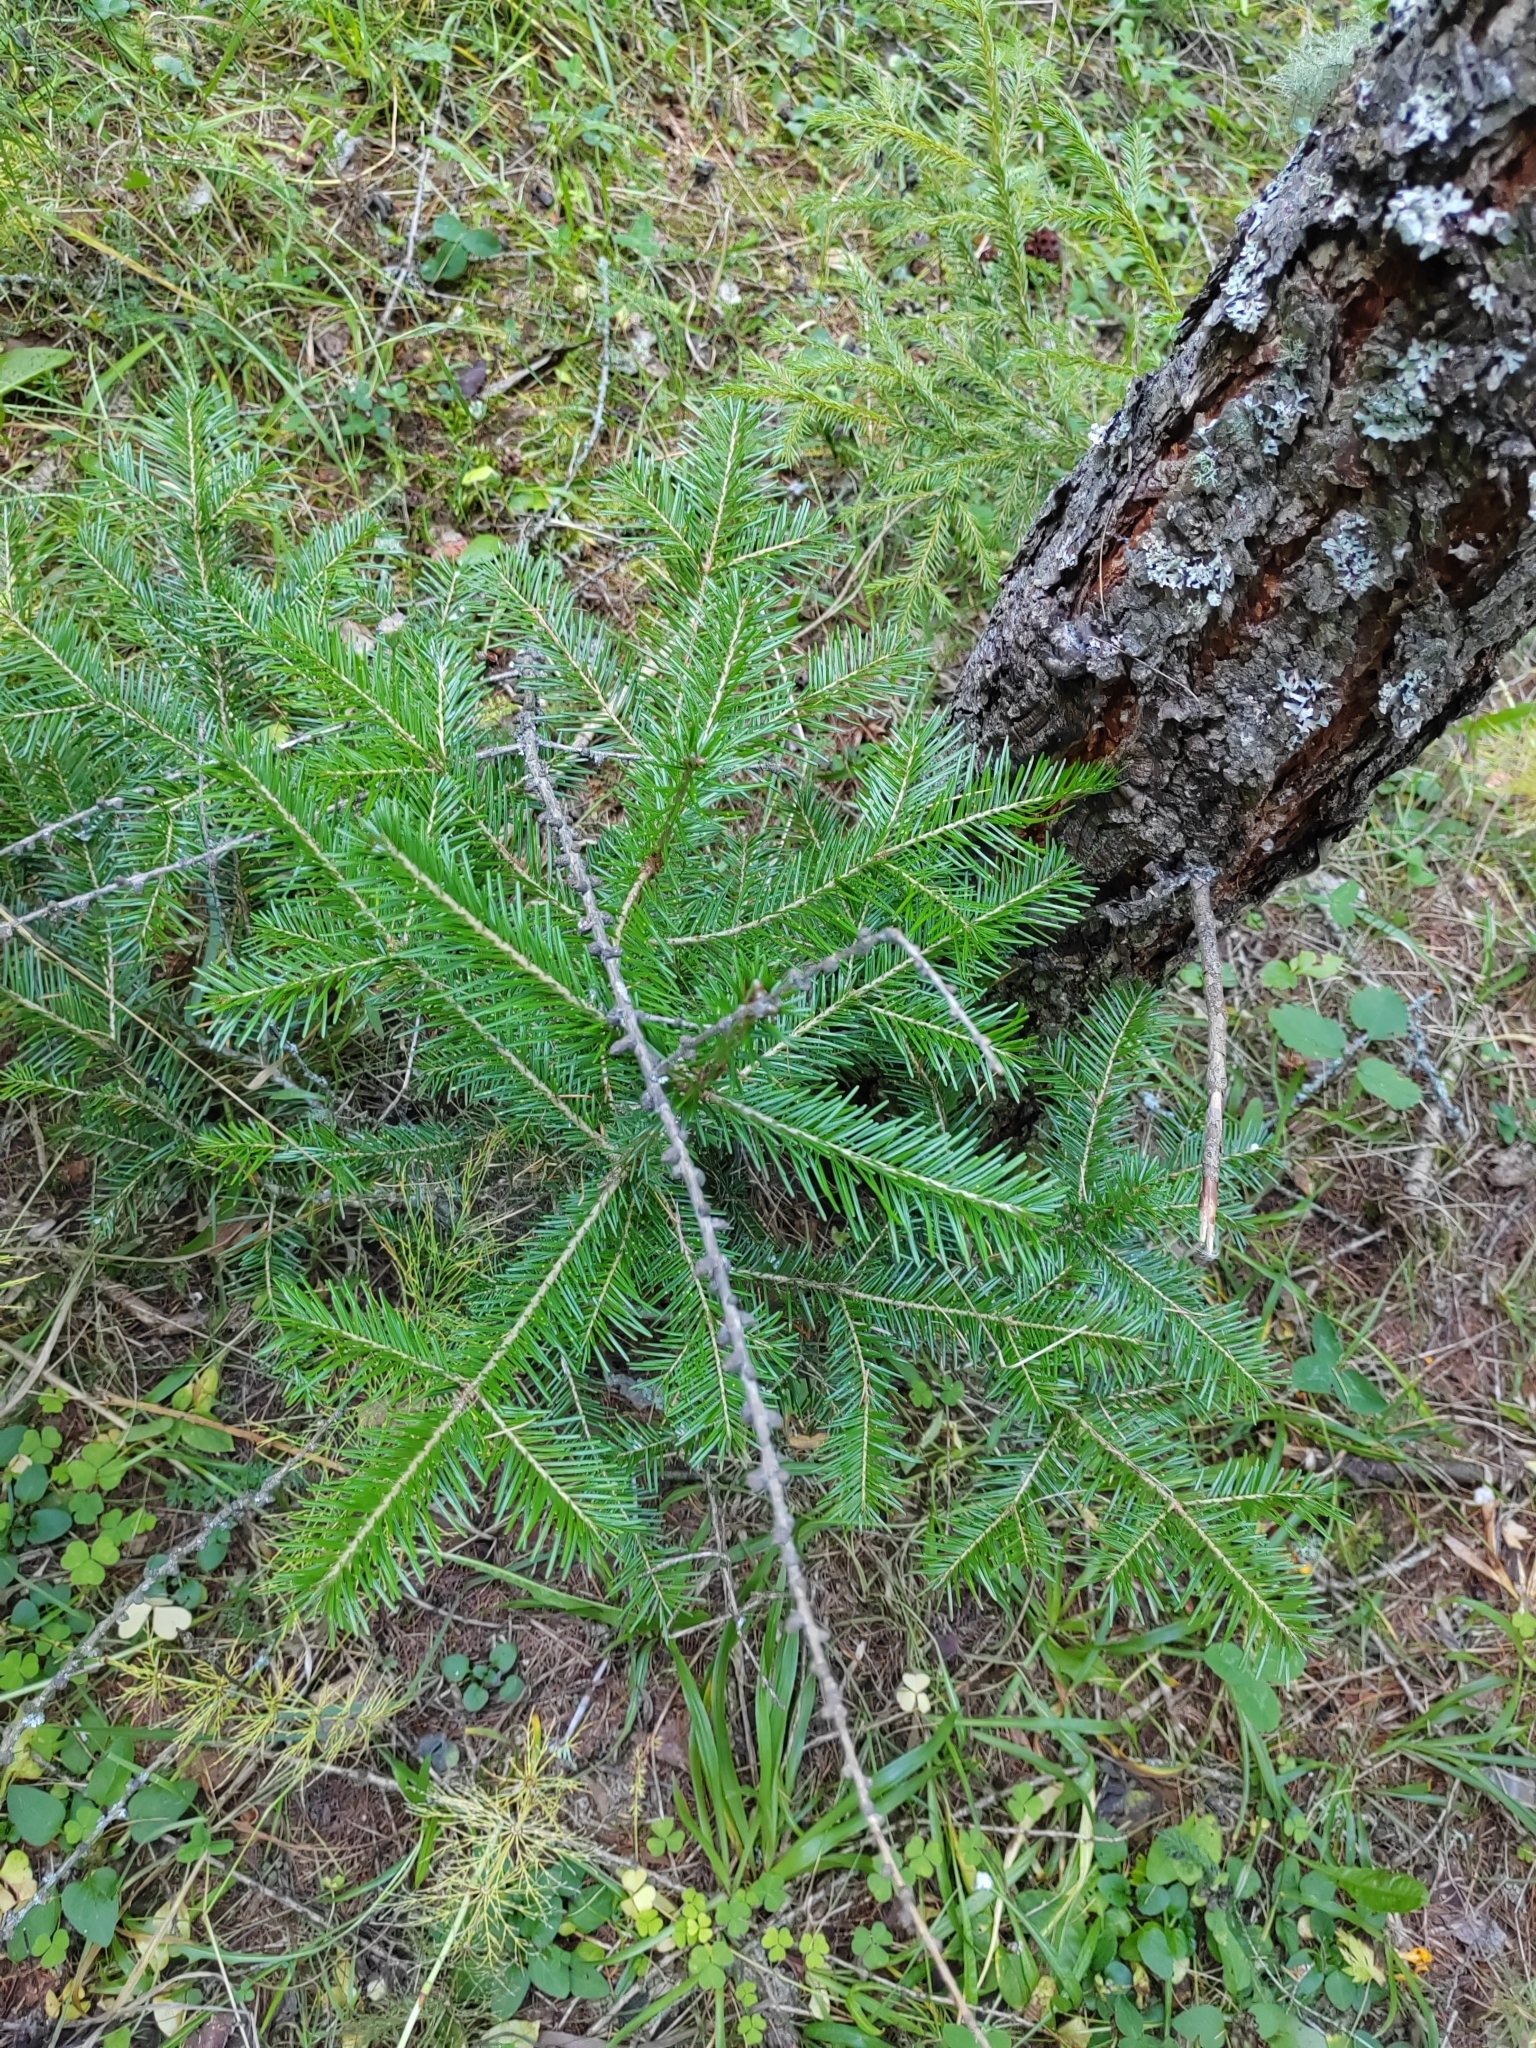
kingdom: Plantae
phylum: Tracheophyta
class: Pinopsida
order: Pinales
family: Pinaceae
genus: Abies
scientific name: Abies sibirica
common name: Siberian fir
